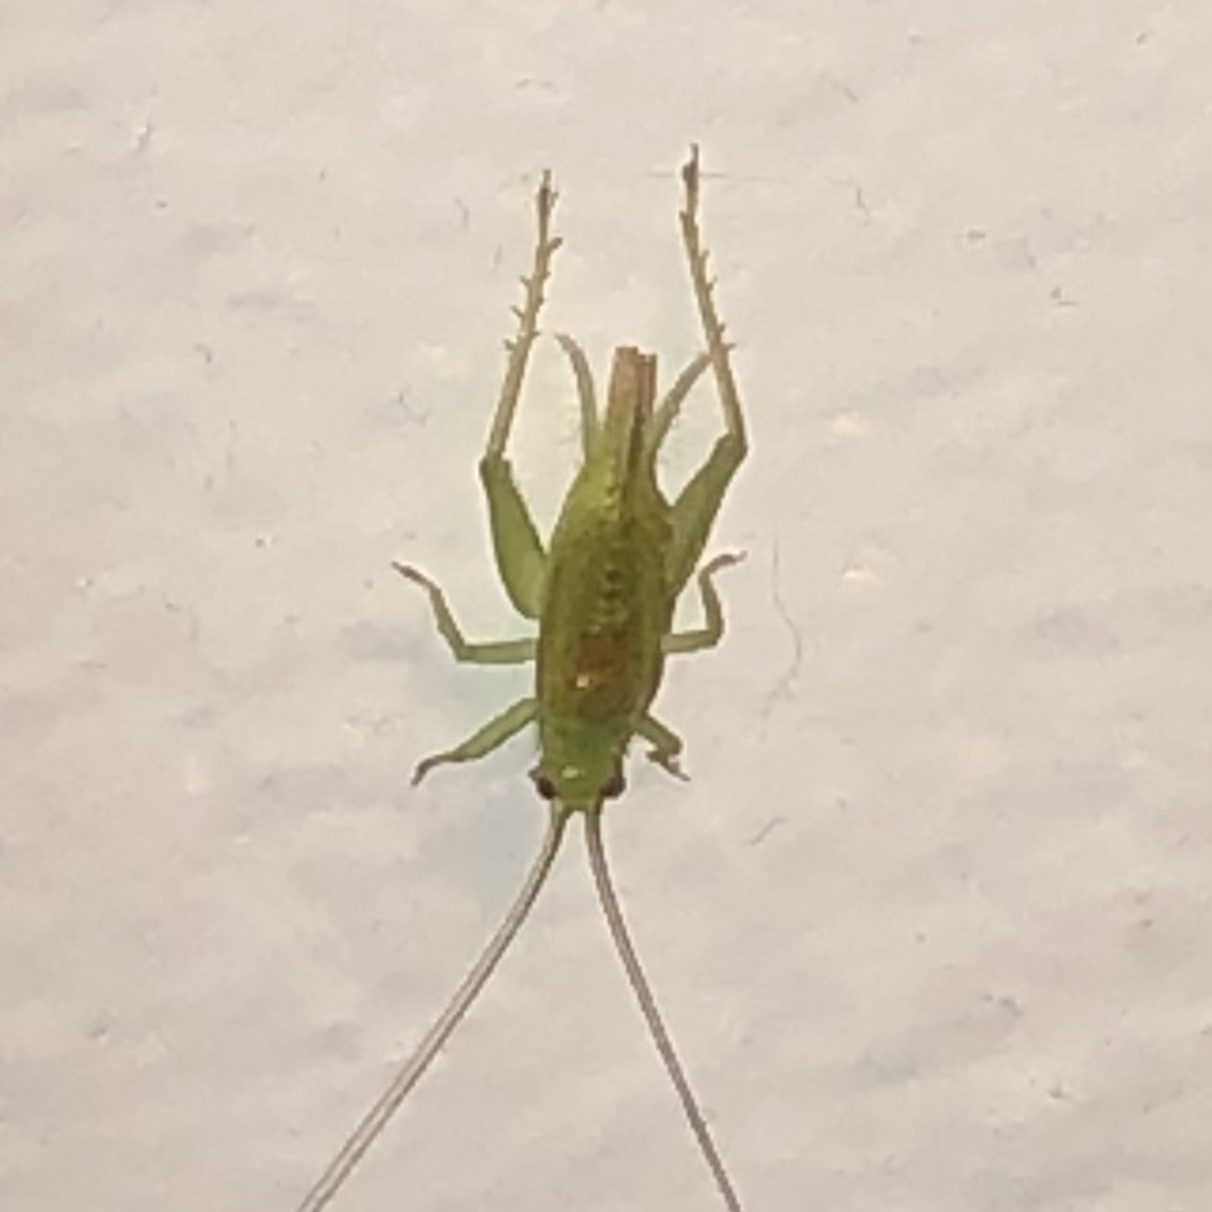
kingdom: Animalia
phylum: Arthropoda
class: Insecta
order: Orthoptera
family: Trigonidiidae
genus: Cyrtoxipha
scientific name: Cyrtoxipha columbiana
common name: Columbian trig
